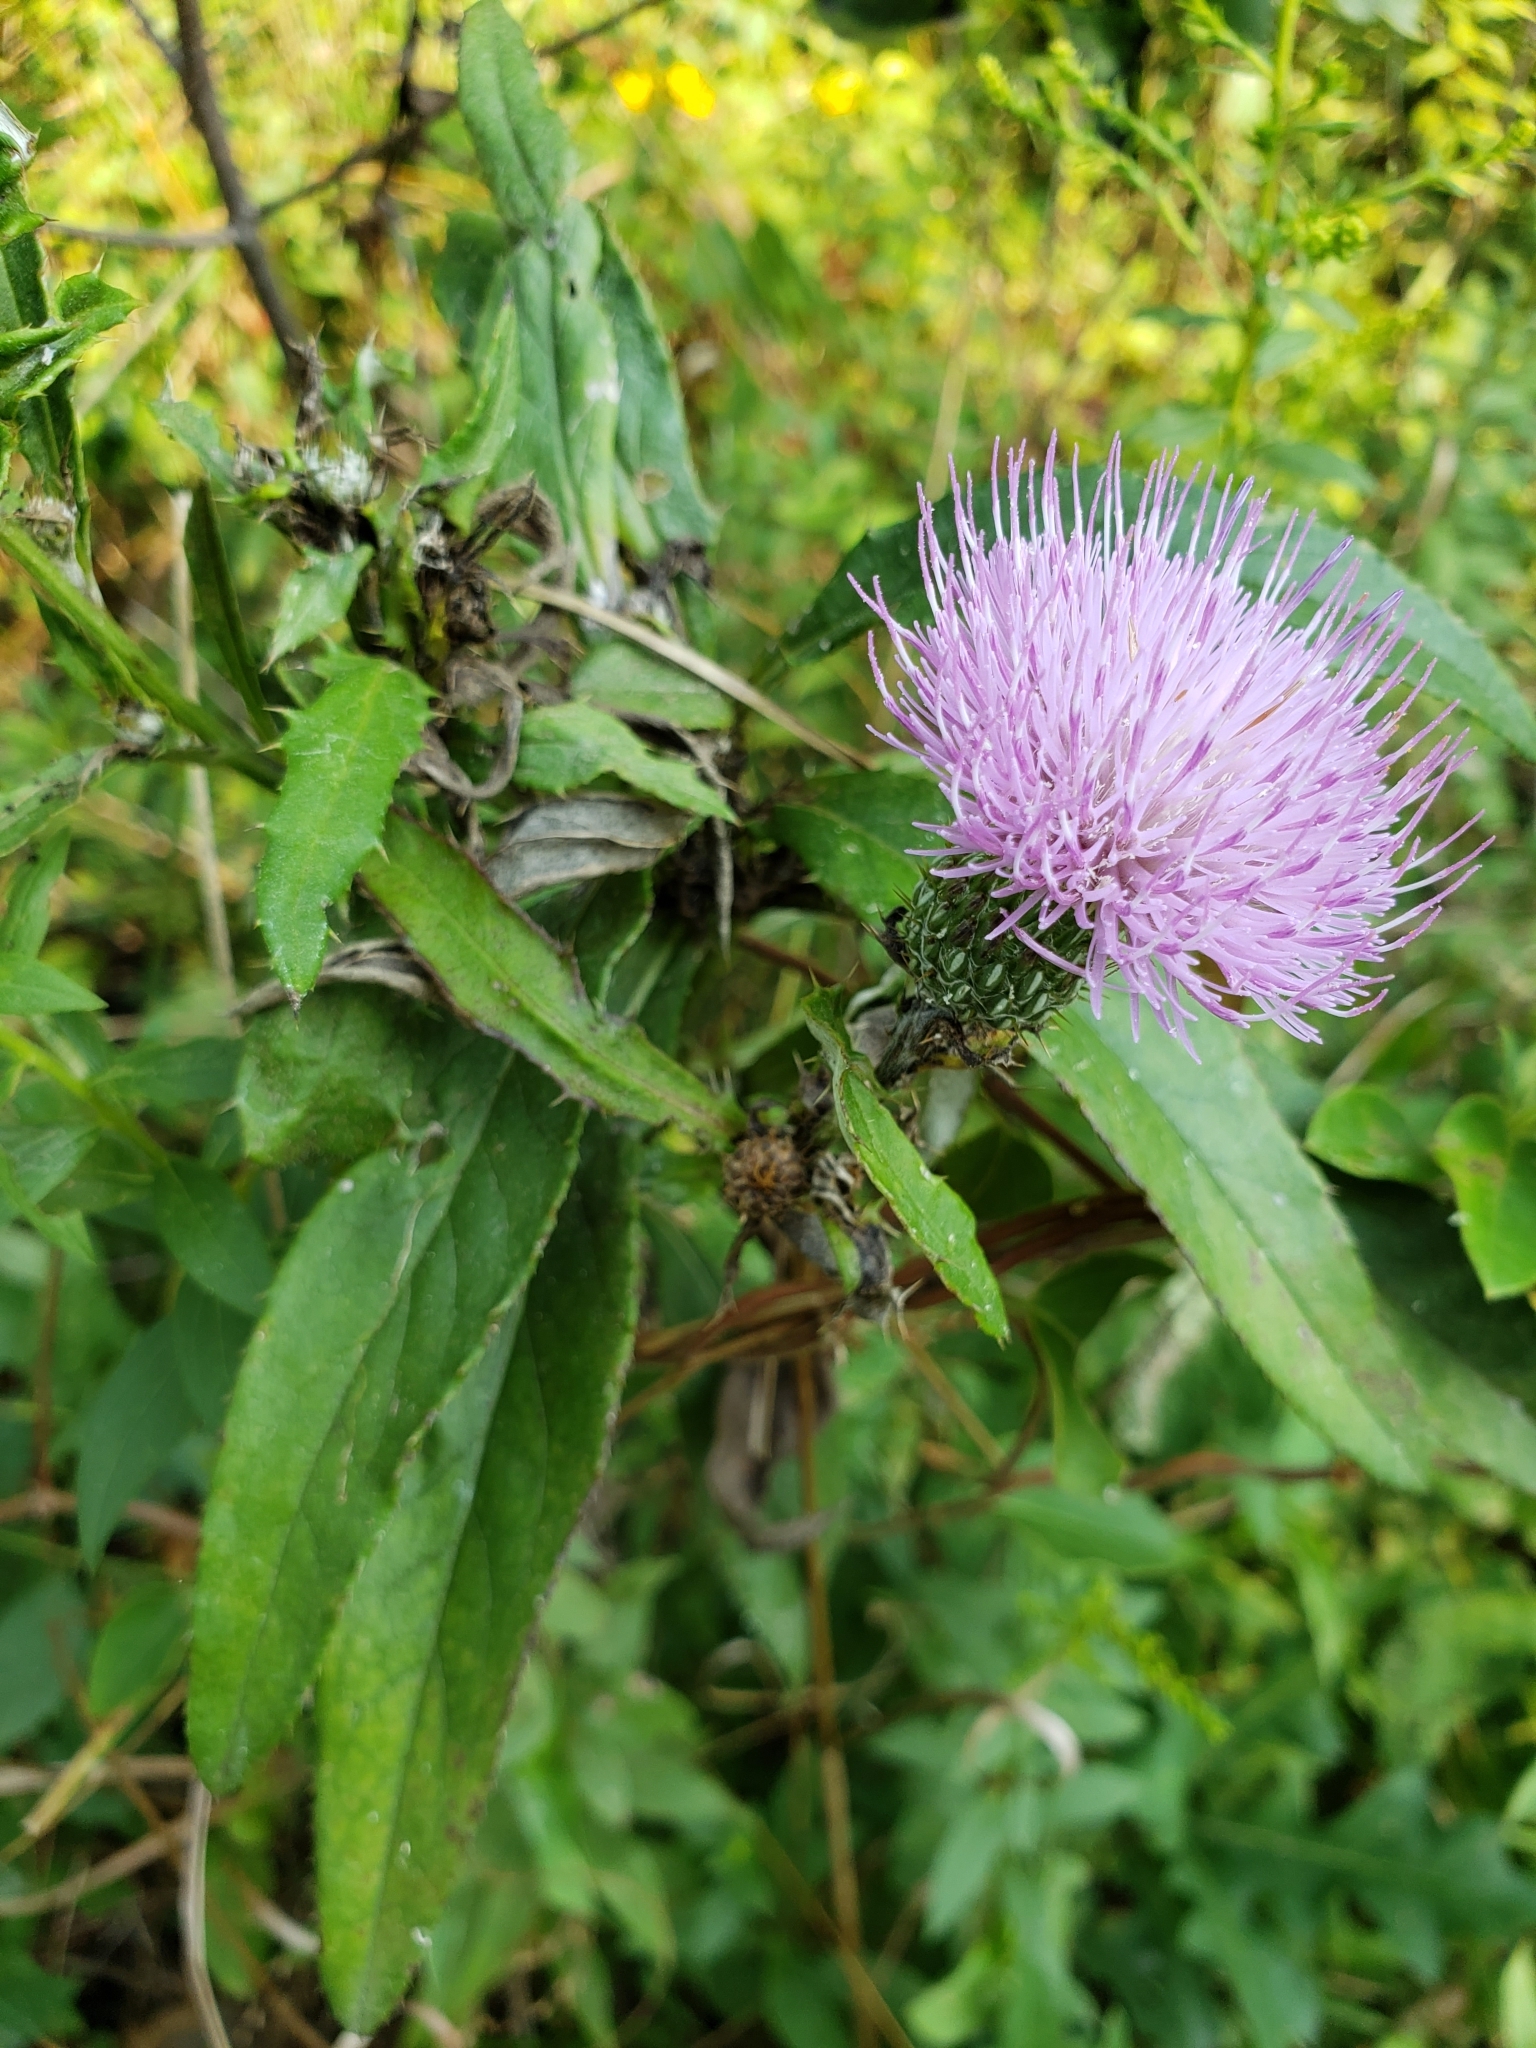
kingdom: Plantae
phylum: Tracheophyta
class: Magnoliopsida
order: Asterales
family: Asteraceae
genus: Cirsium
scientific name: Cirsium altissimum
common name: Roadside thistle
